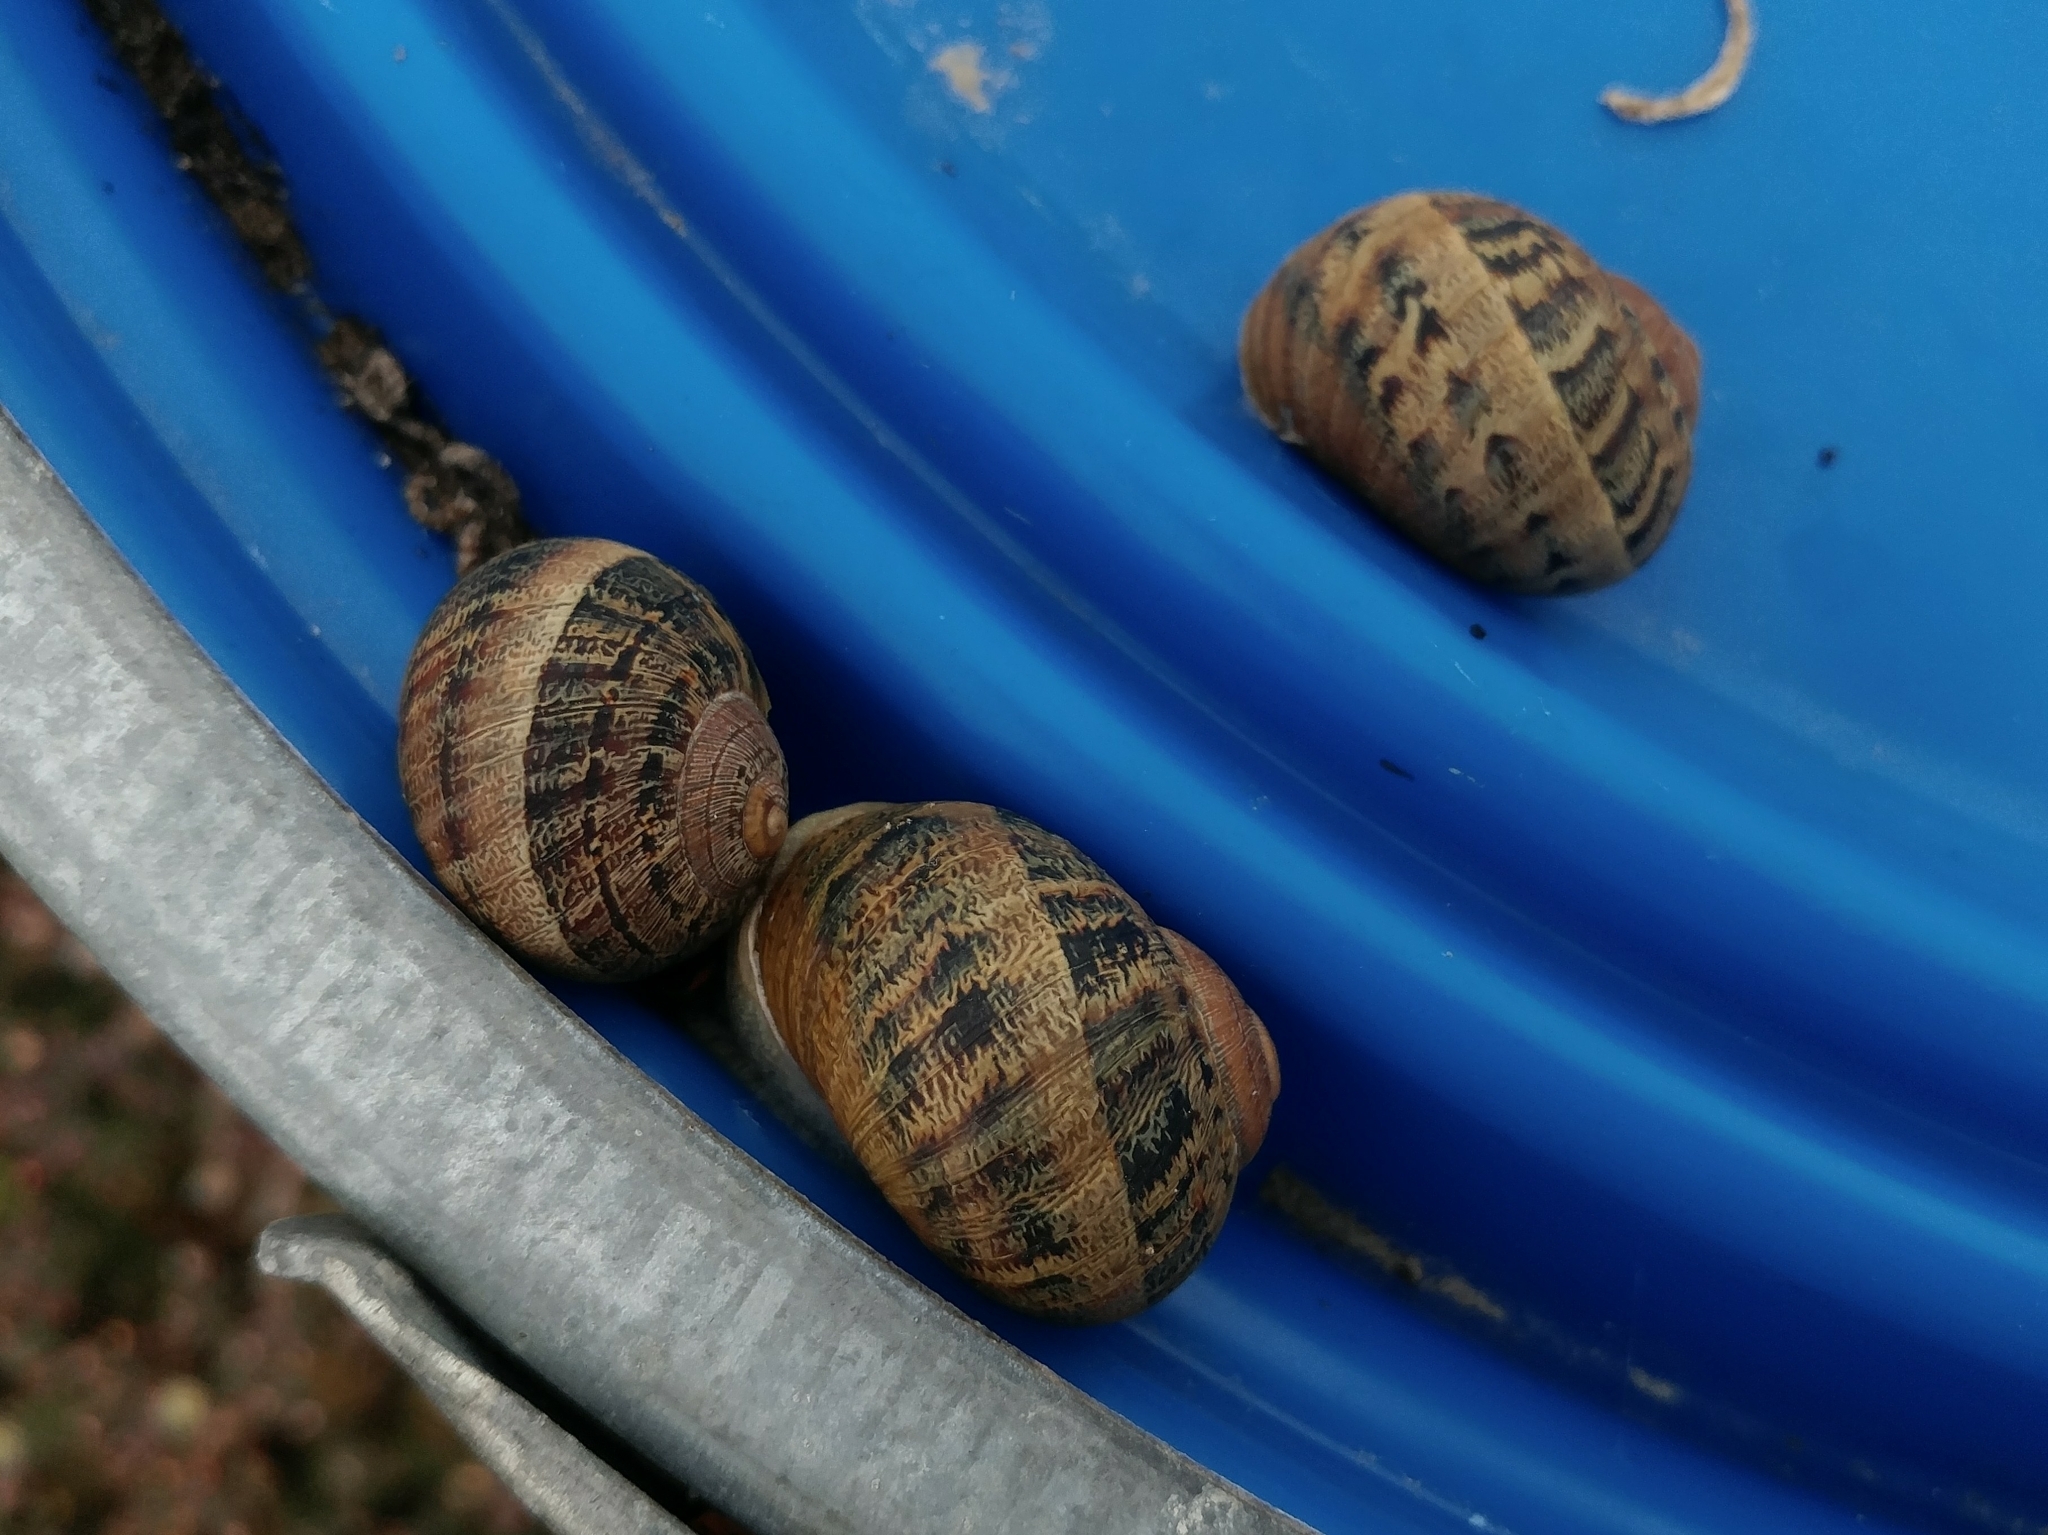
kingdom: Animalia
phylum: Mollusca
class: Gastropoda
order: Stylommatophora
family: Helicidae
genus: Cornu
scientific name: Cornu aspersum
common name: Brown garden snail
